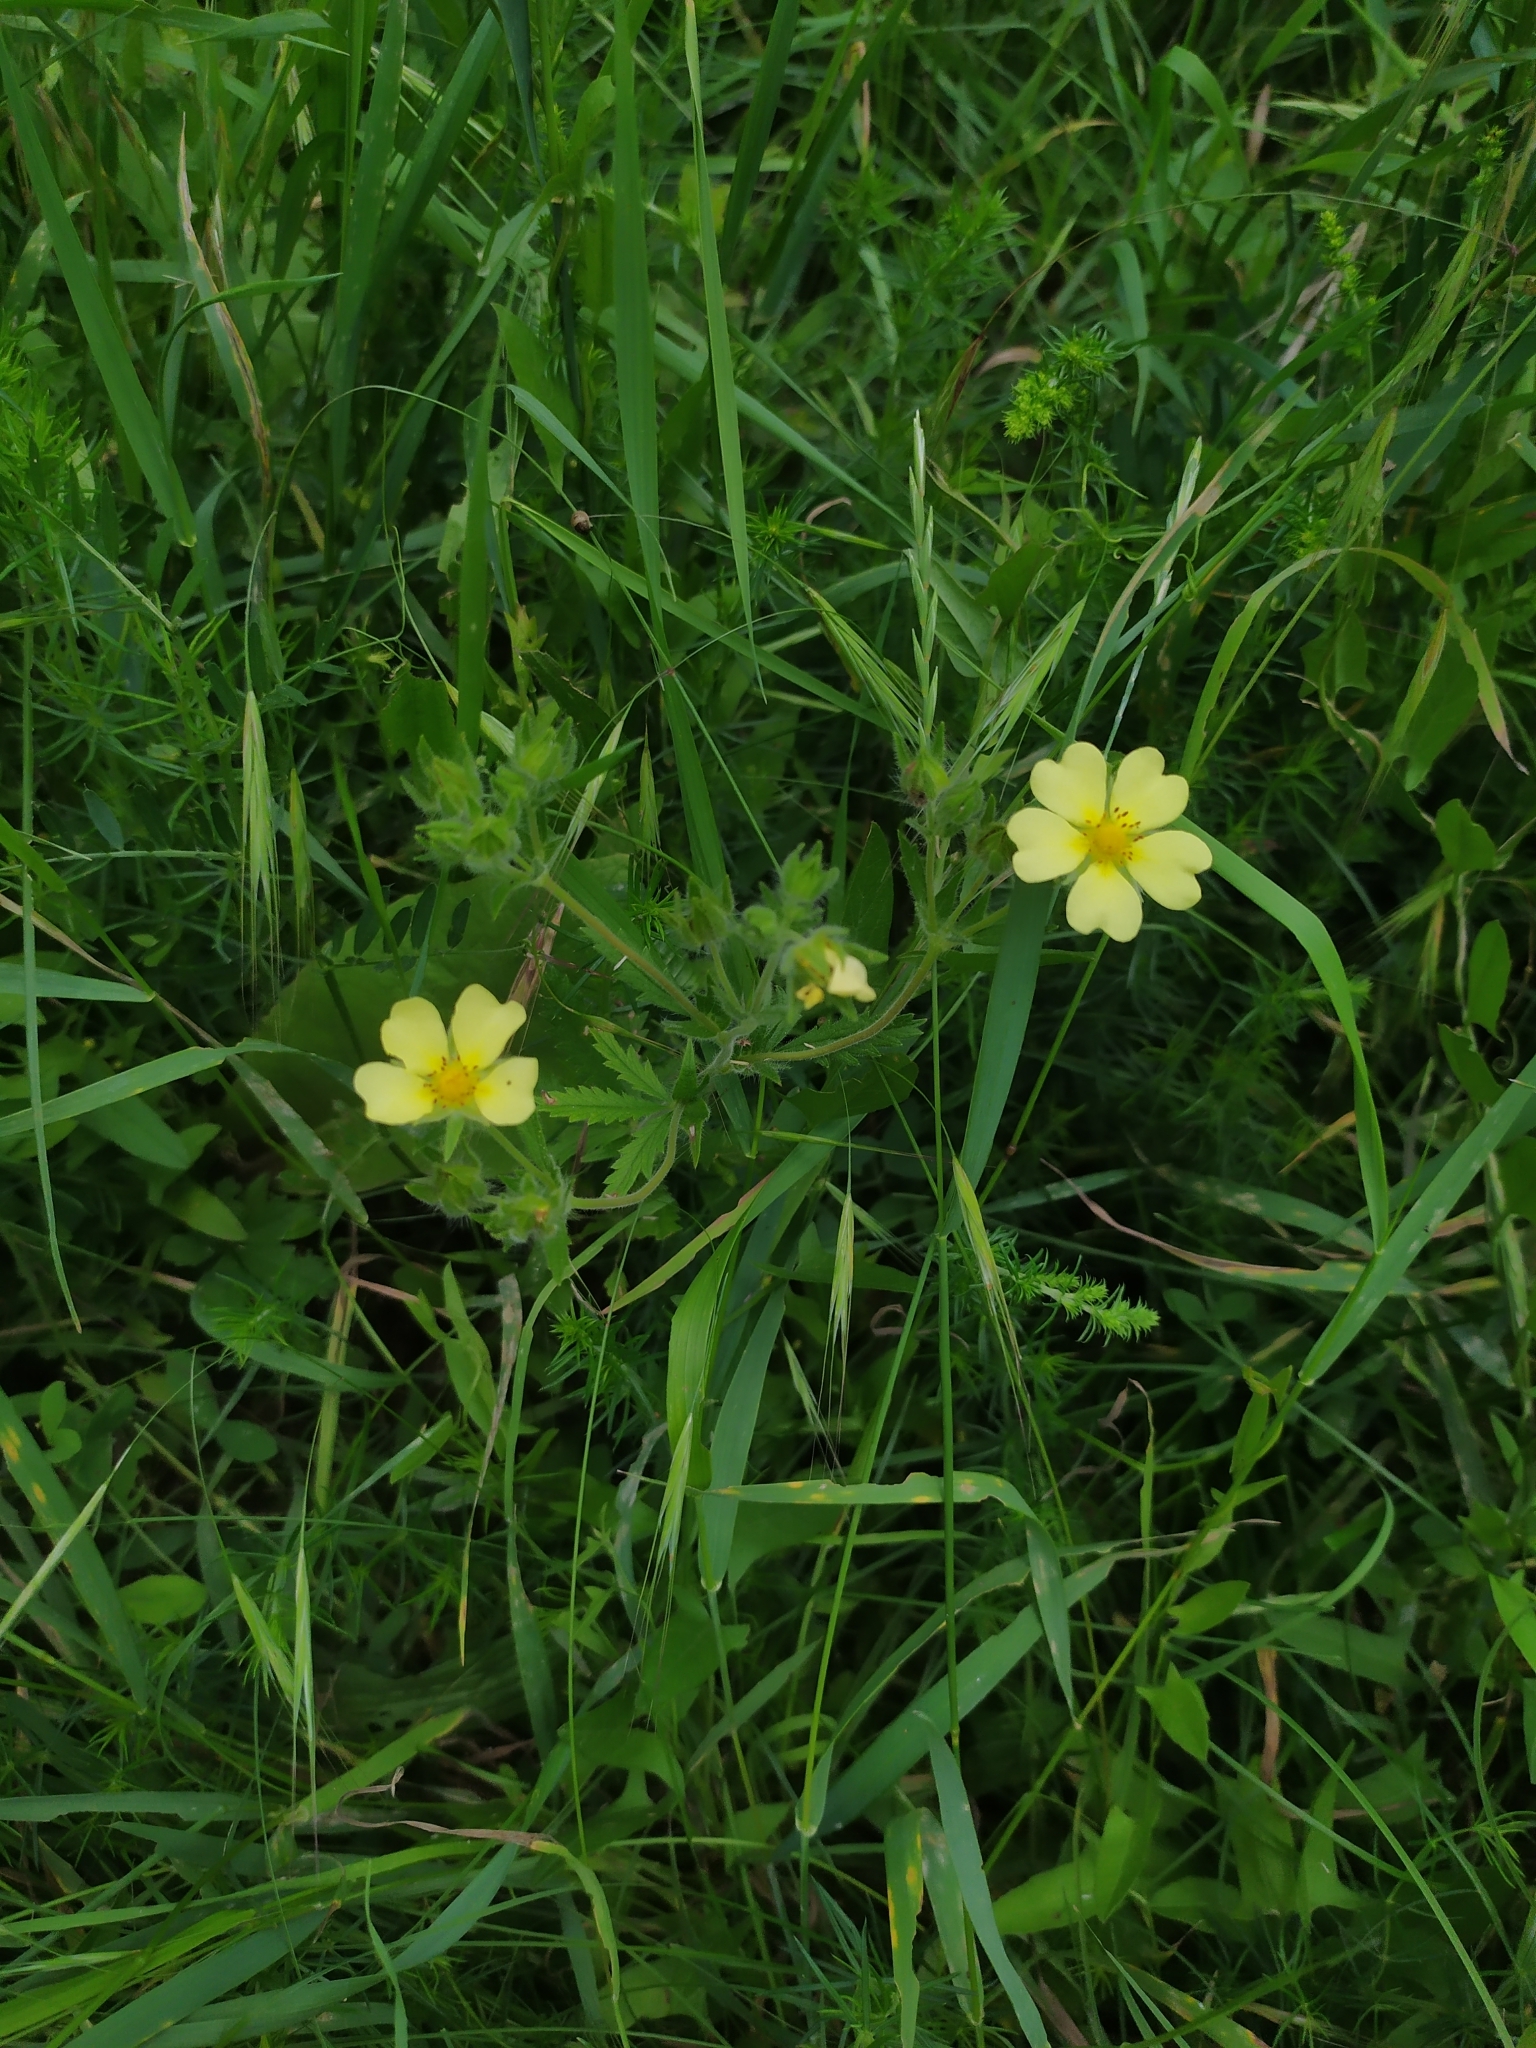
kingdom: Plantae
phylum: Tracheophyta
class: Magnoliopsida
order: Rosales
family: Rosaceae
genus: Potentilla
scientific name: Potentilla recta
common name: Sulphur cinquefoil
